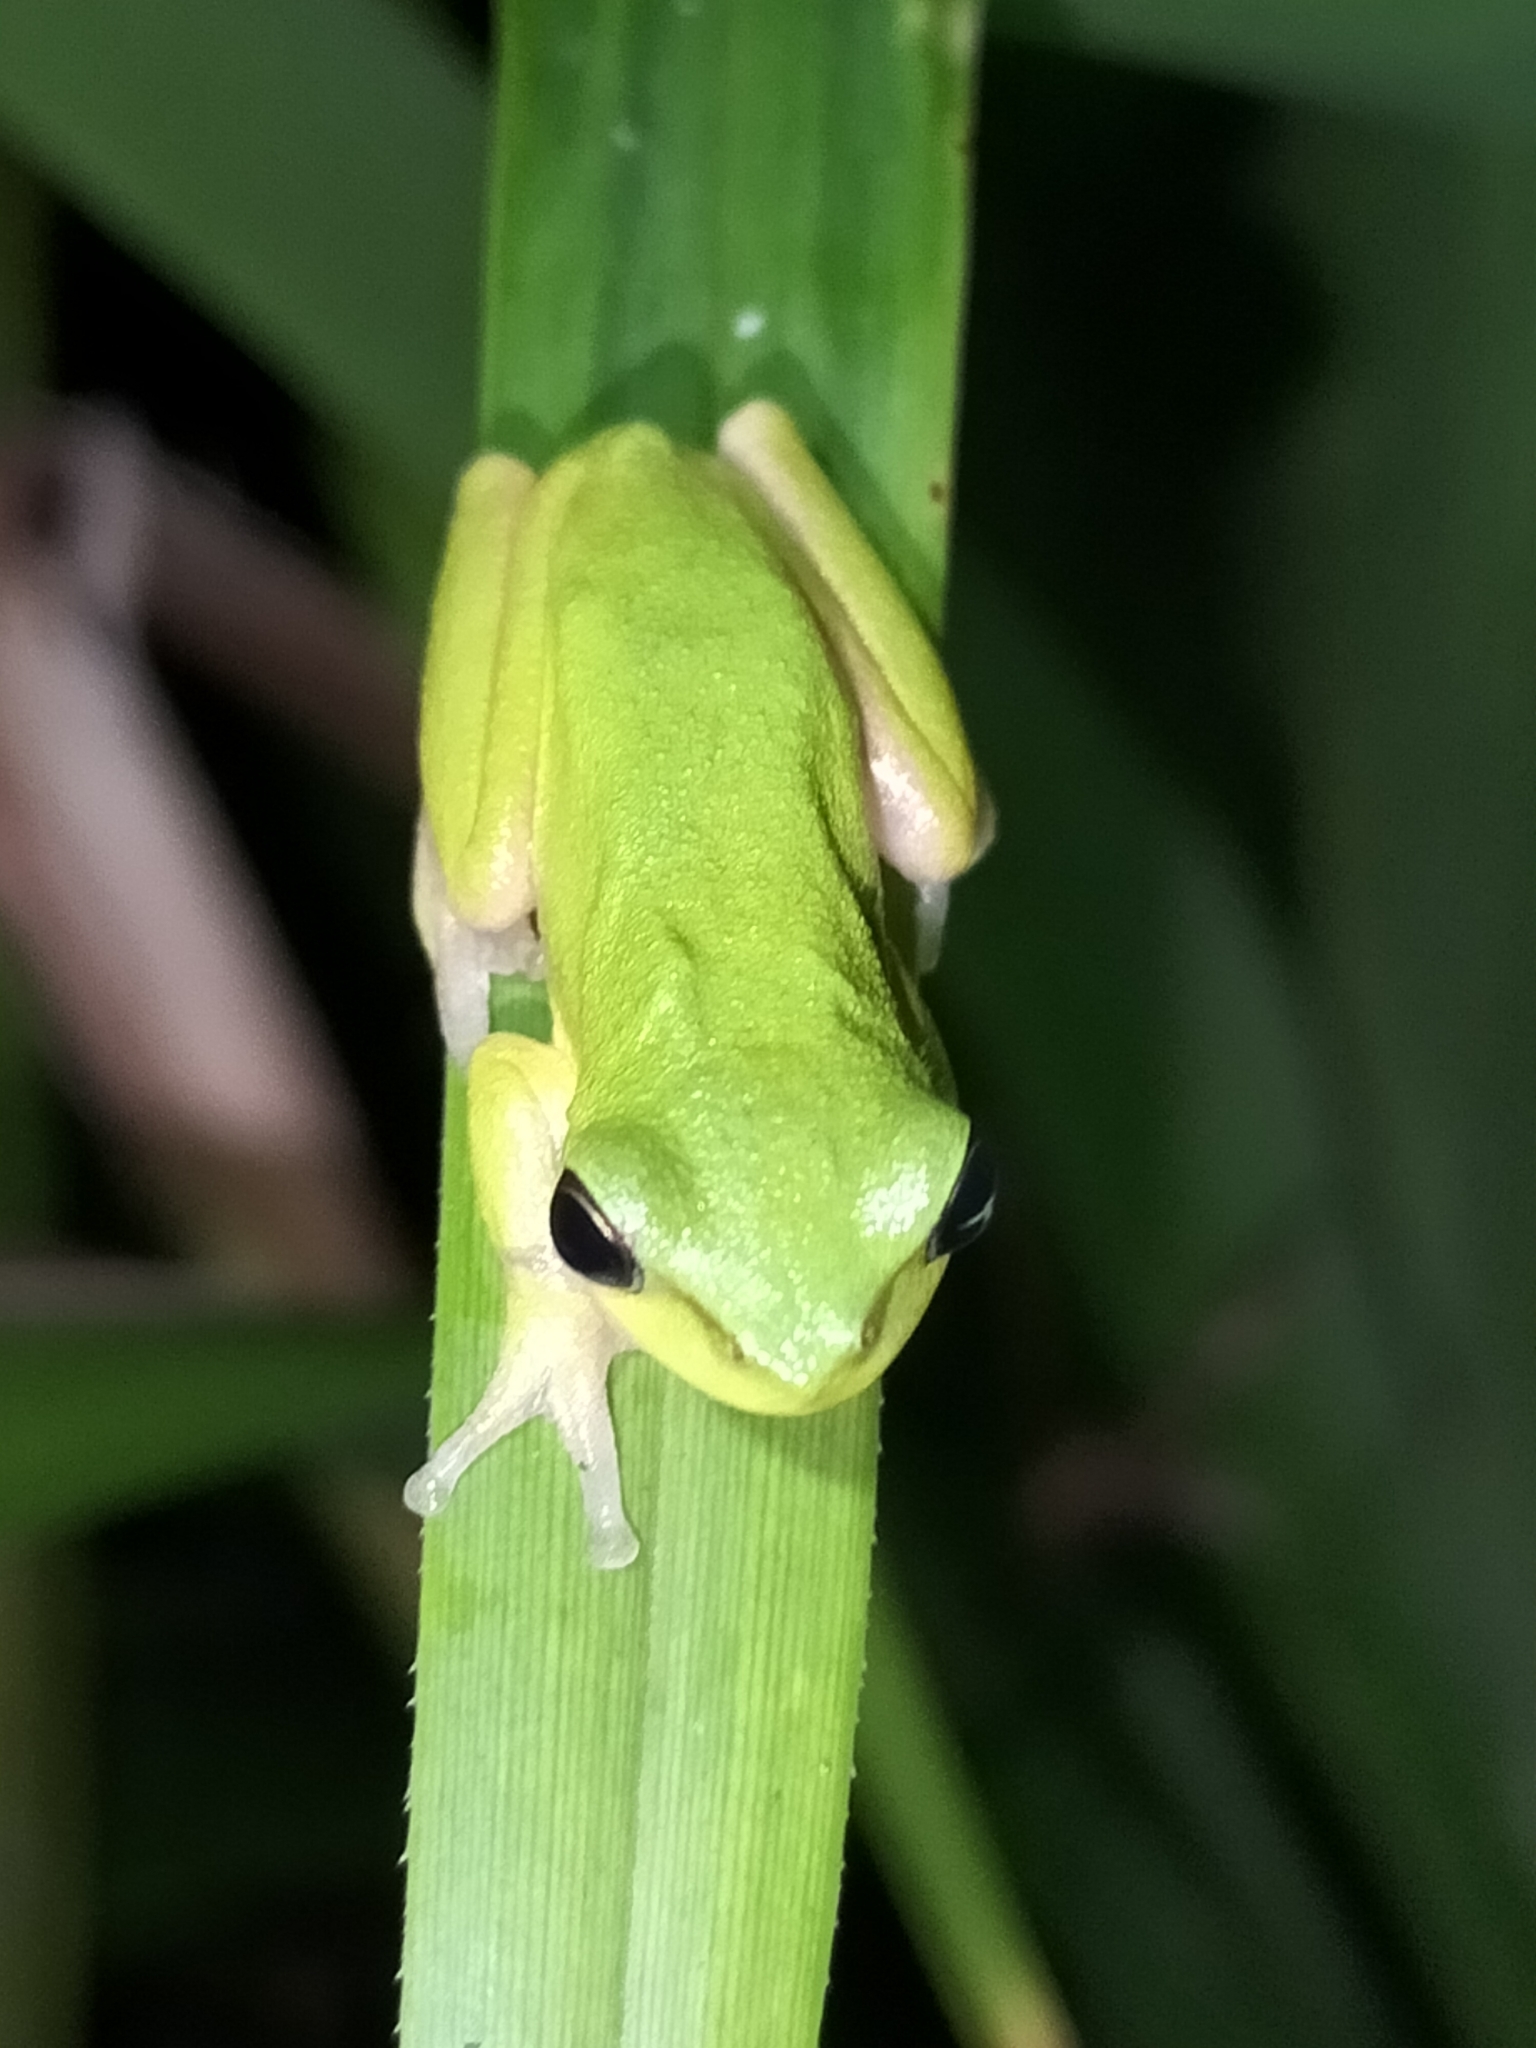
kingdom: Animalia
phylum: Chordata
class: Amphibia
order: Anura
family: Pelodryadidae
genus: Litoria
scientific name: Litoria fallax
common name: Eastern dwarf treefrog
